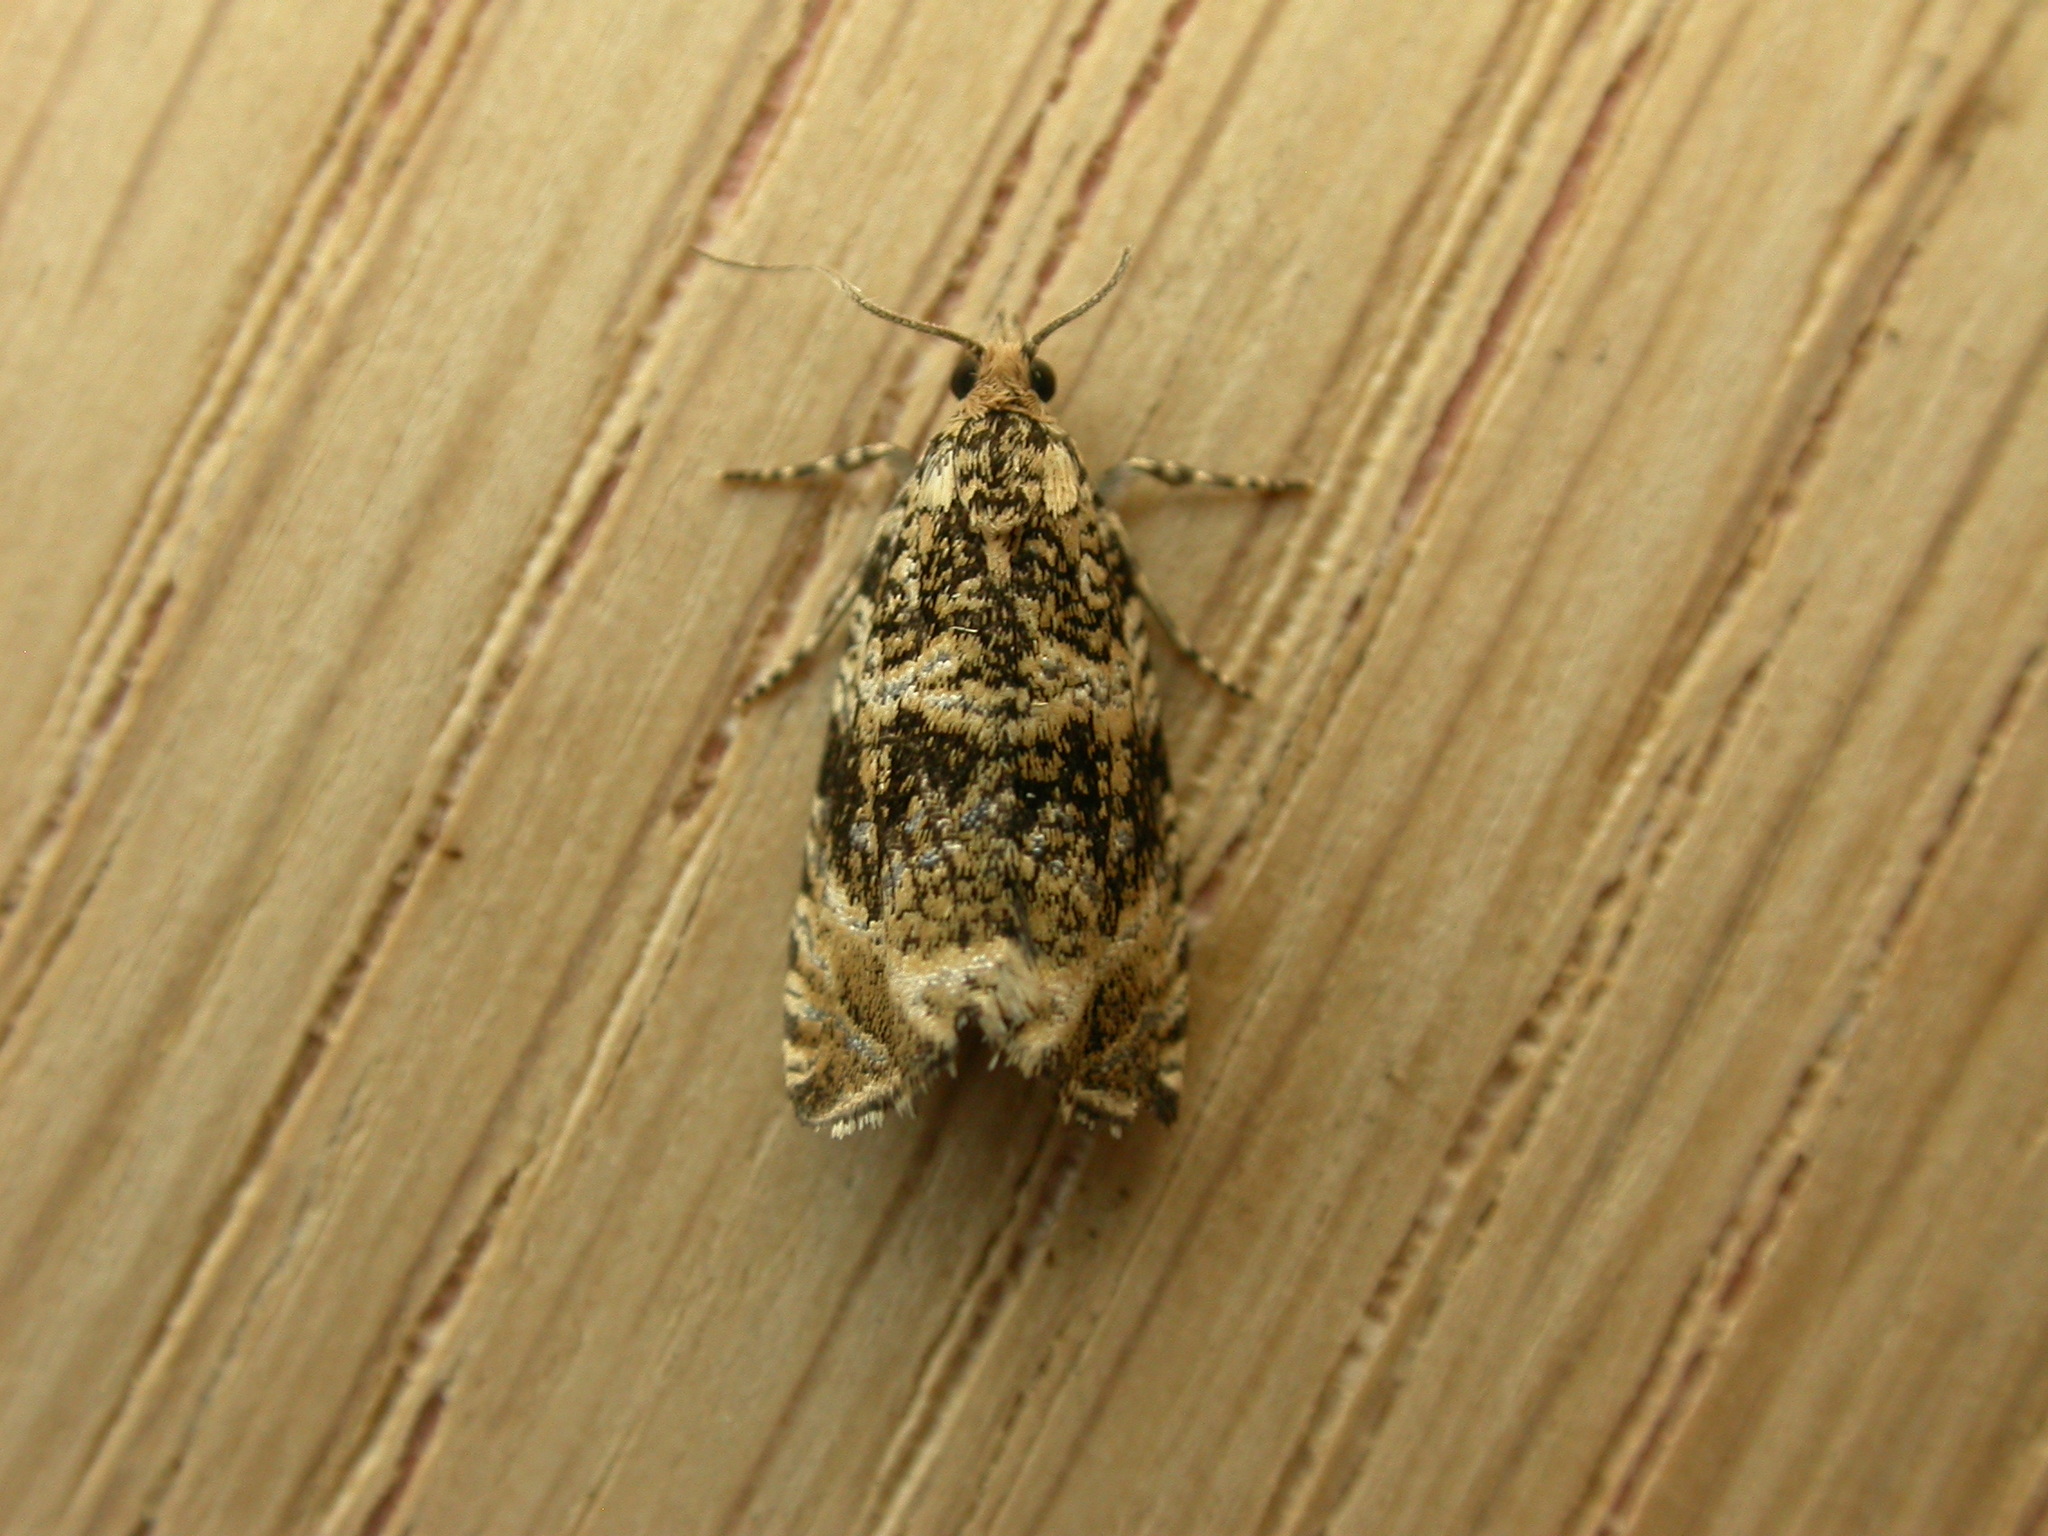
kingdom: Animalia
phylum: Arthropoda
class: Insecta
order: Lepidoptera
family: Tortricidae
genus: Syricoris
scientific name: Syricoris lacunana
